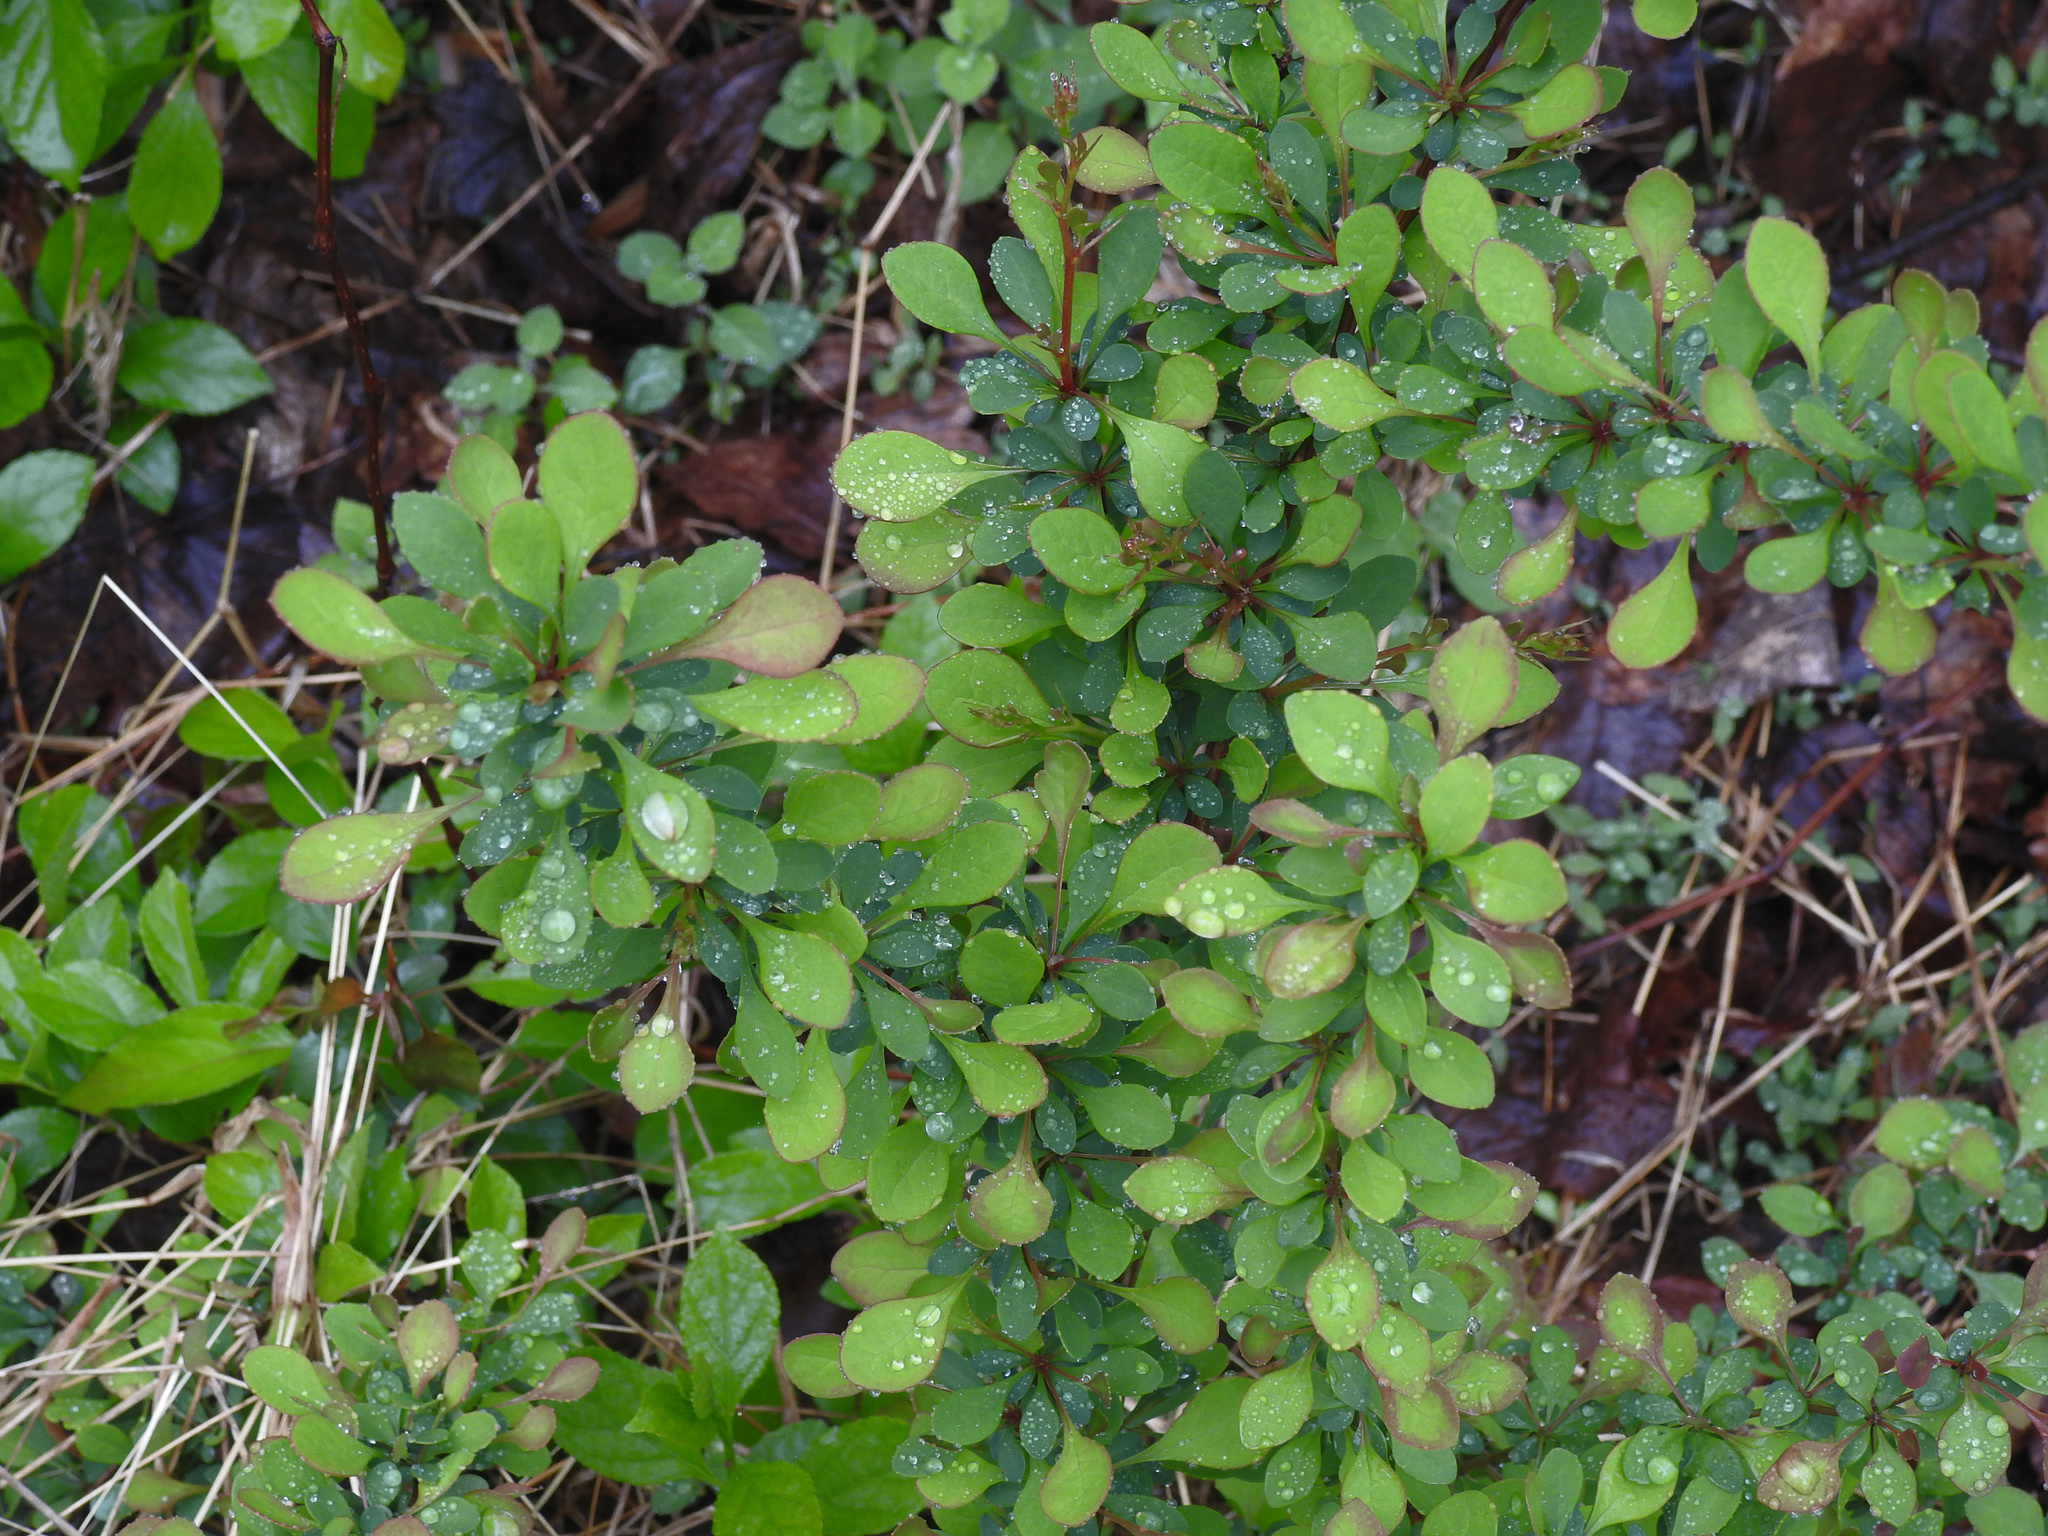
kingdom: Plantae
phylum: Tracheophyta
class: Magnoliopsida
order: Ranunculales
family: Berberidaceae
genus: Berberis
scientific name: Berberis thunbergii
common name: Japanese barberry
